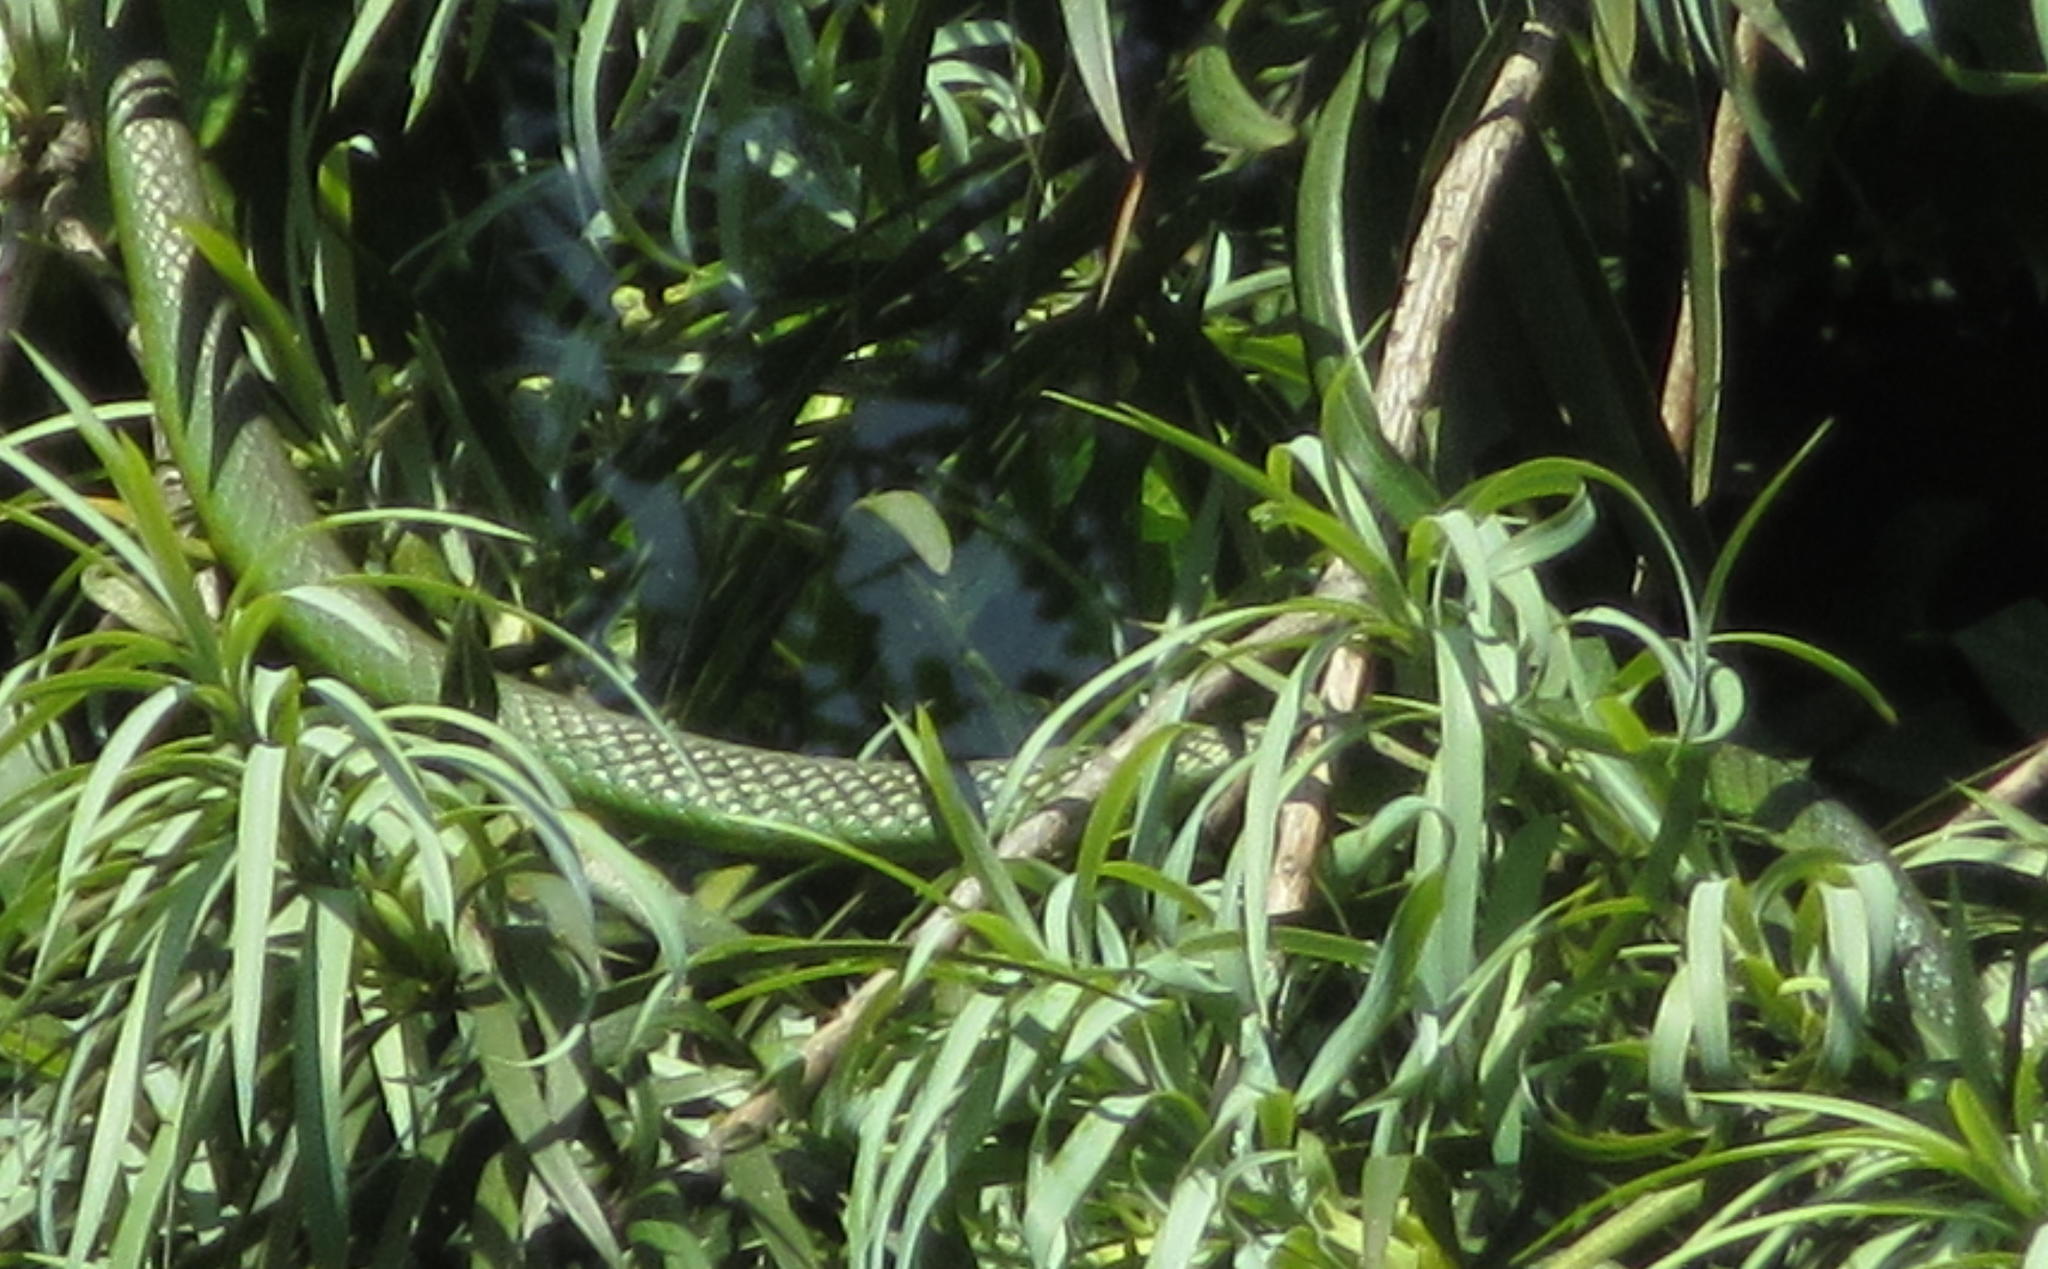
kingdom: Animalia
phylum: Chordata
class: Squamata
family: Colubridae
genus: Philothamnus
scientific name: Philothamnus occidentalis
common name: Western natal green snake
